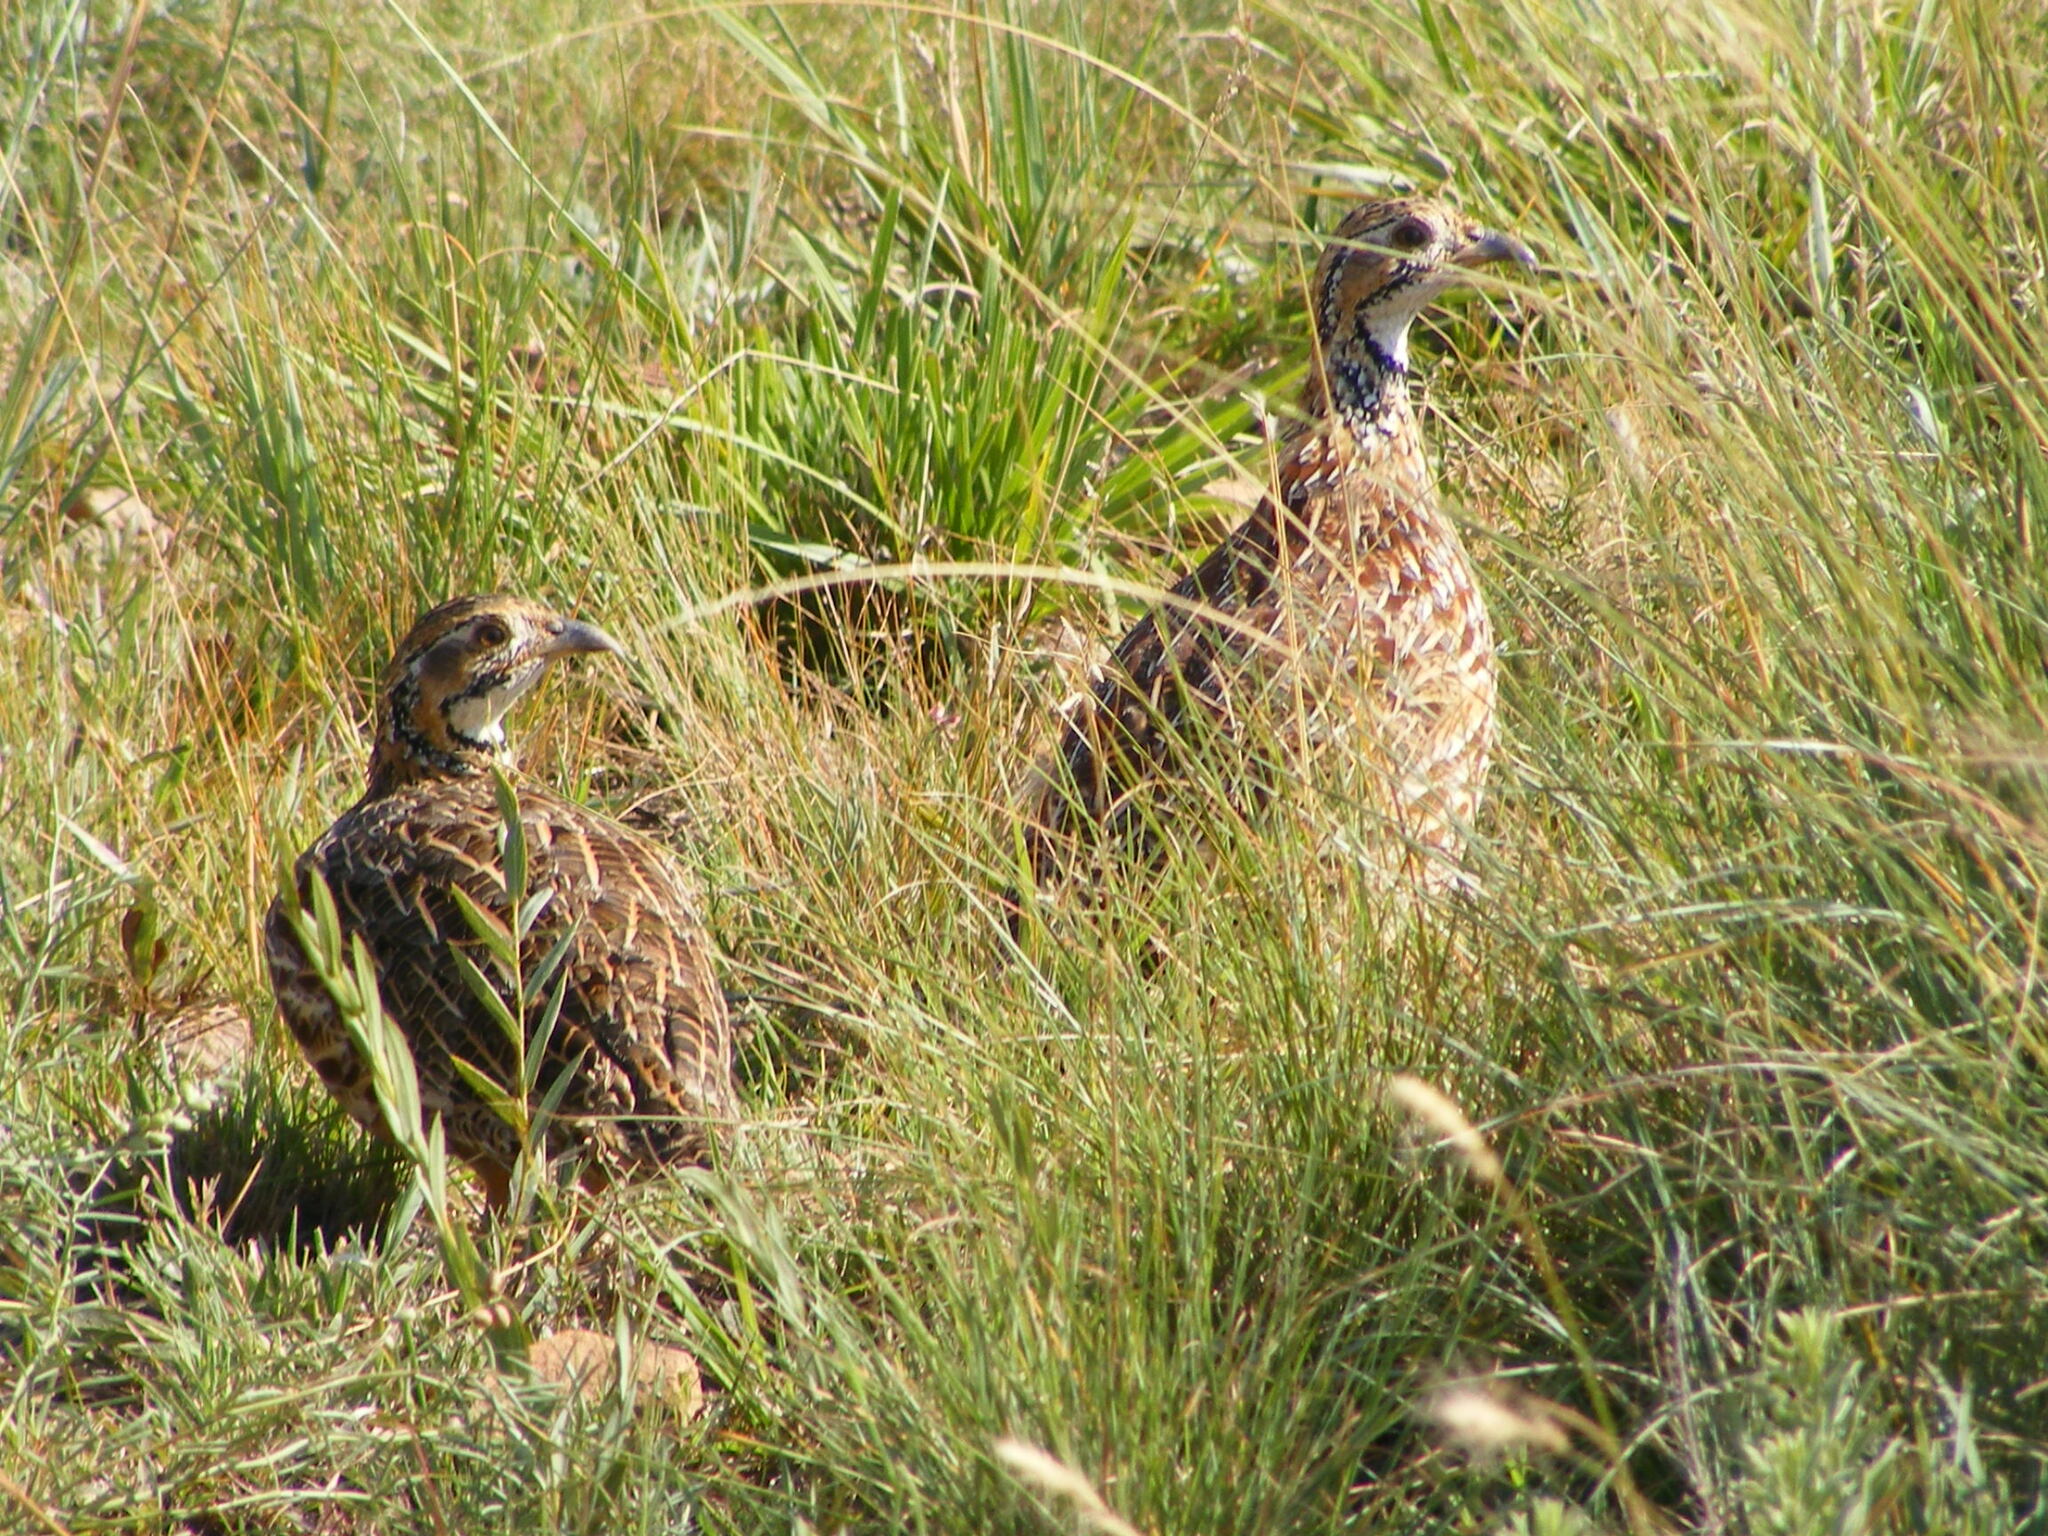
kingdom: Animalia
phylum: Chordata
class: Aves
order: Galliformes
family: Phasianidae
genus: Scleroptila
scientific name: Scleroptila gutturalis
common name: Orange river francolin
